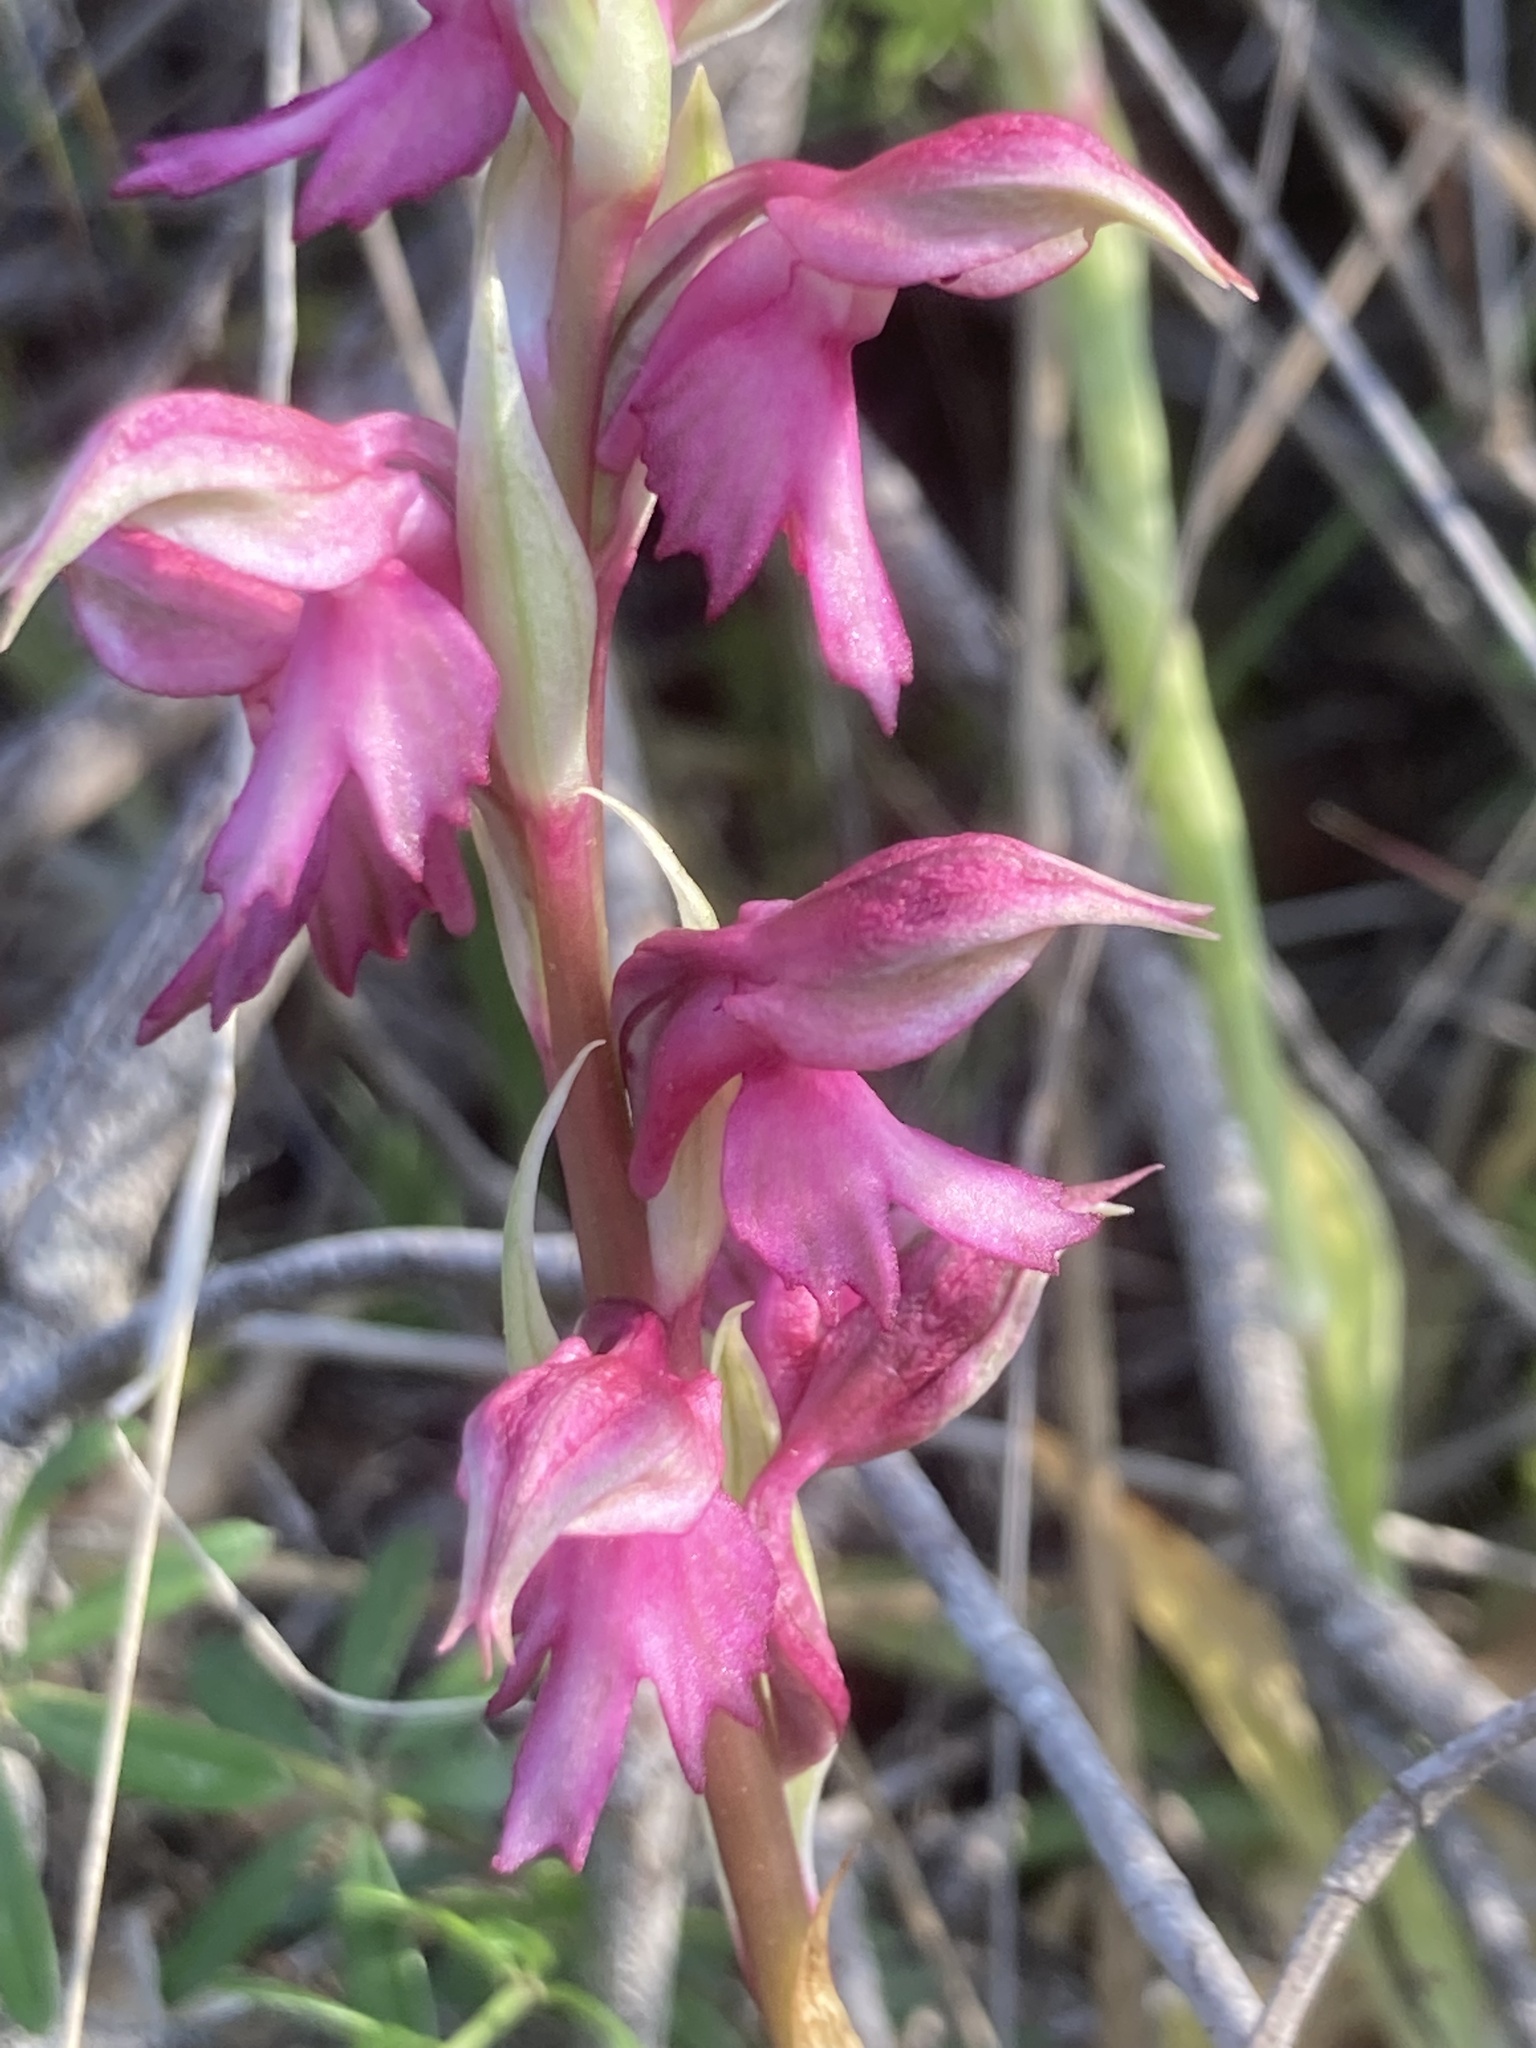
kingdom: Plantae
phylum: Tracheophyta
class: Liliopsida
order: Asparagales
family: Orchidaceae
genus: Anacamptis
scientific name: Anacamptis sancta
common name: Holy orchid
